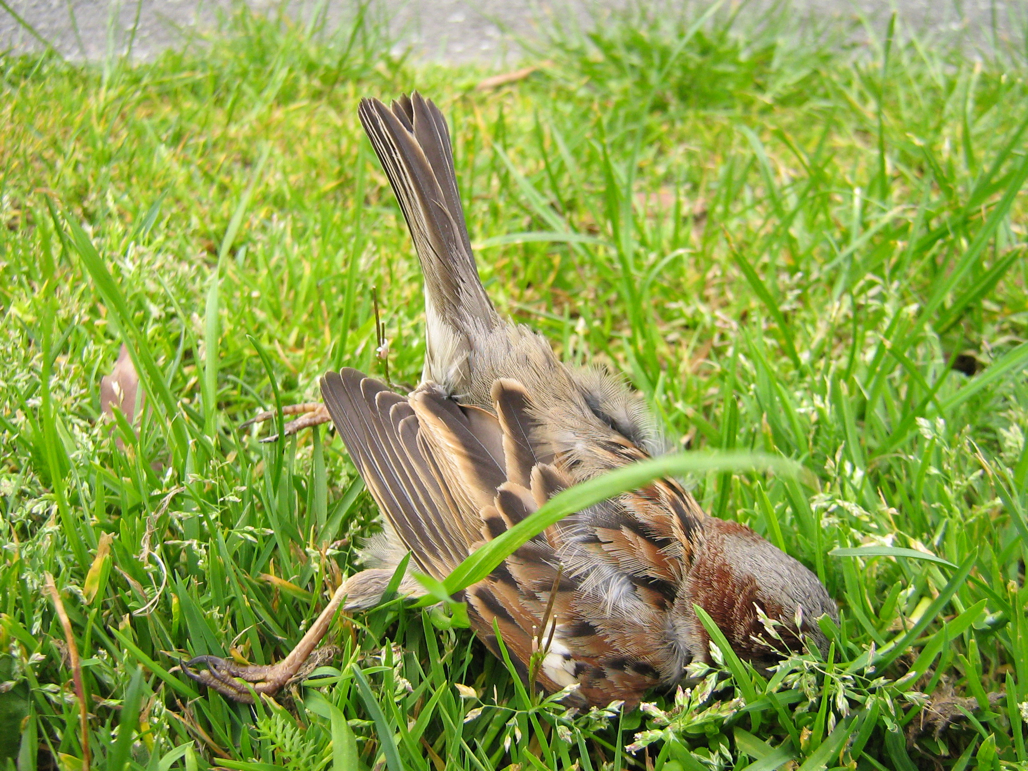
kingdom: Animalia
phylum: Chordata
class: Aves
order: Passeriformes
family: Passeridae
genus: Passer
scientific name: Passer domesticus
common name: House sparrow
